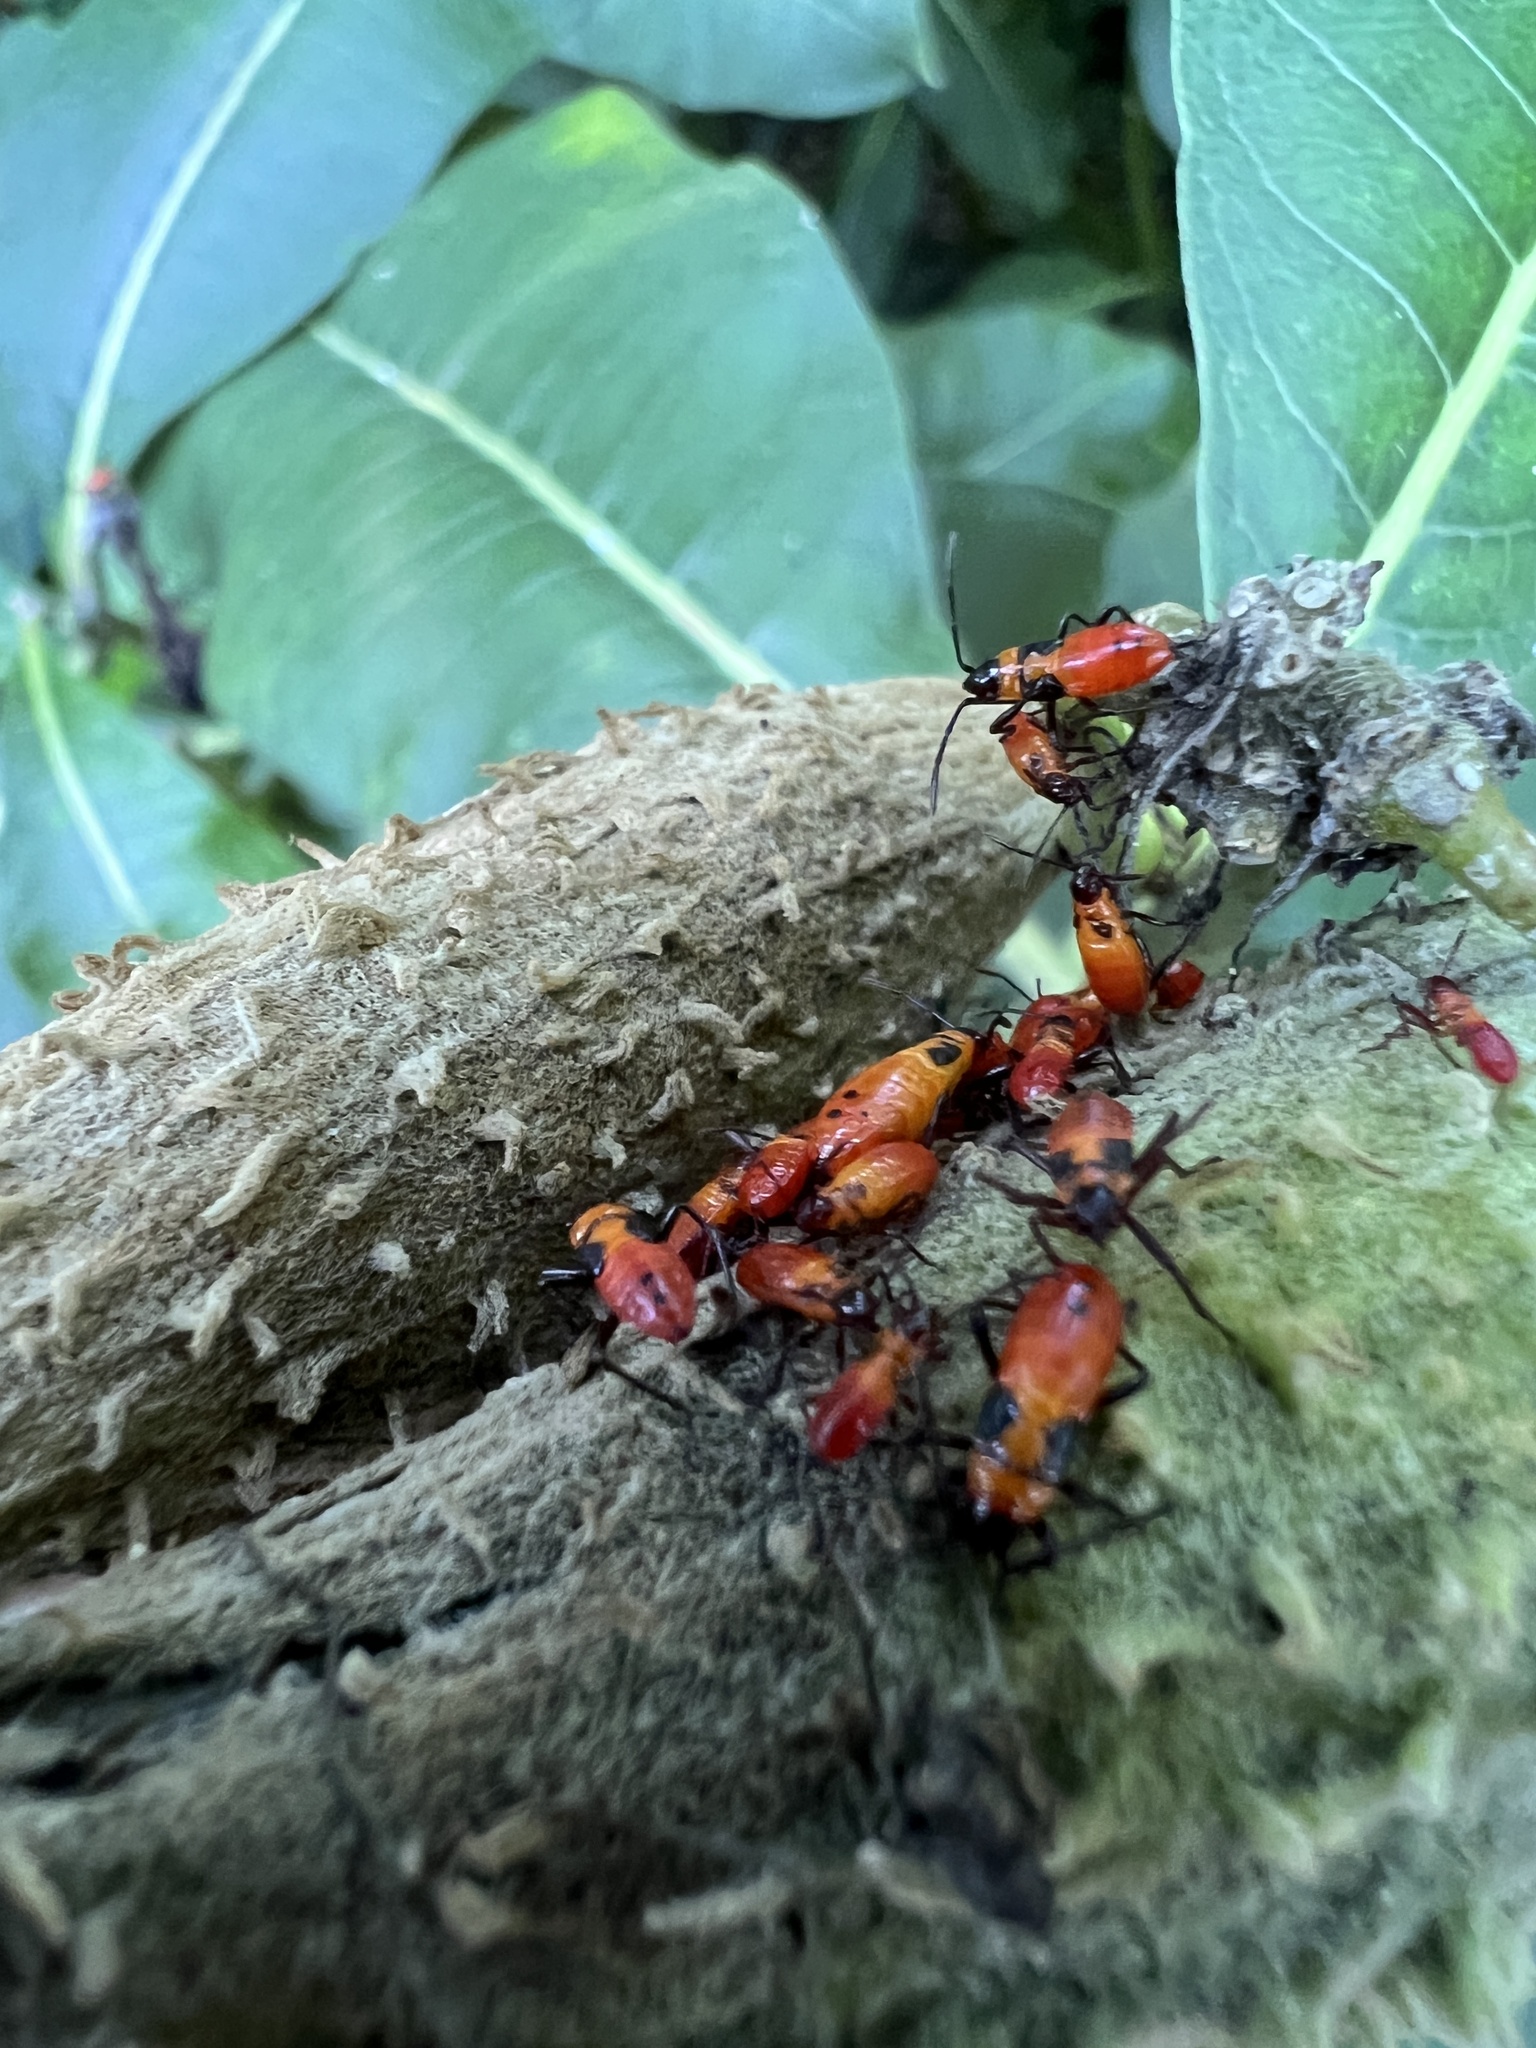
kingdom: Animalia
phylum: Arthropoda
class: Insecta
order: Hemiptera
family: Lygaeidae
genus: Oncopeltus
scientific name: Oncopeltus fasciatus
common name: Large milkweed bug
